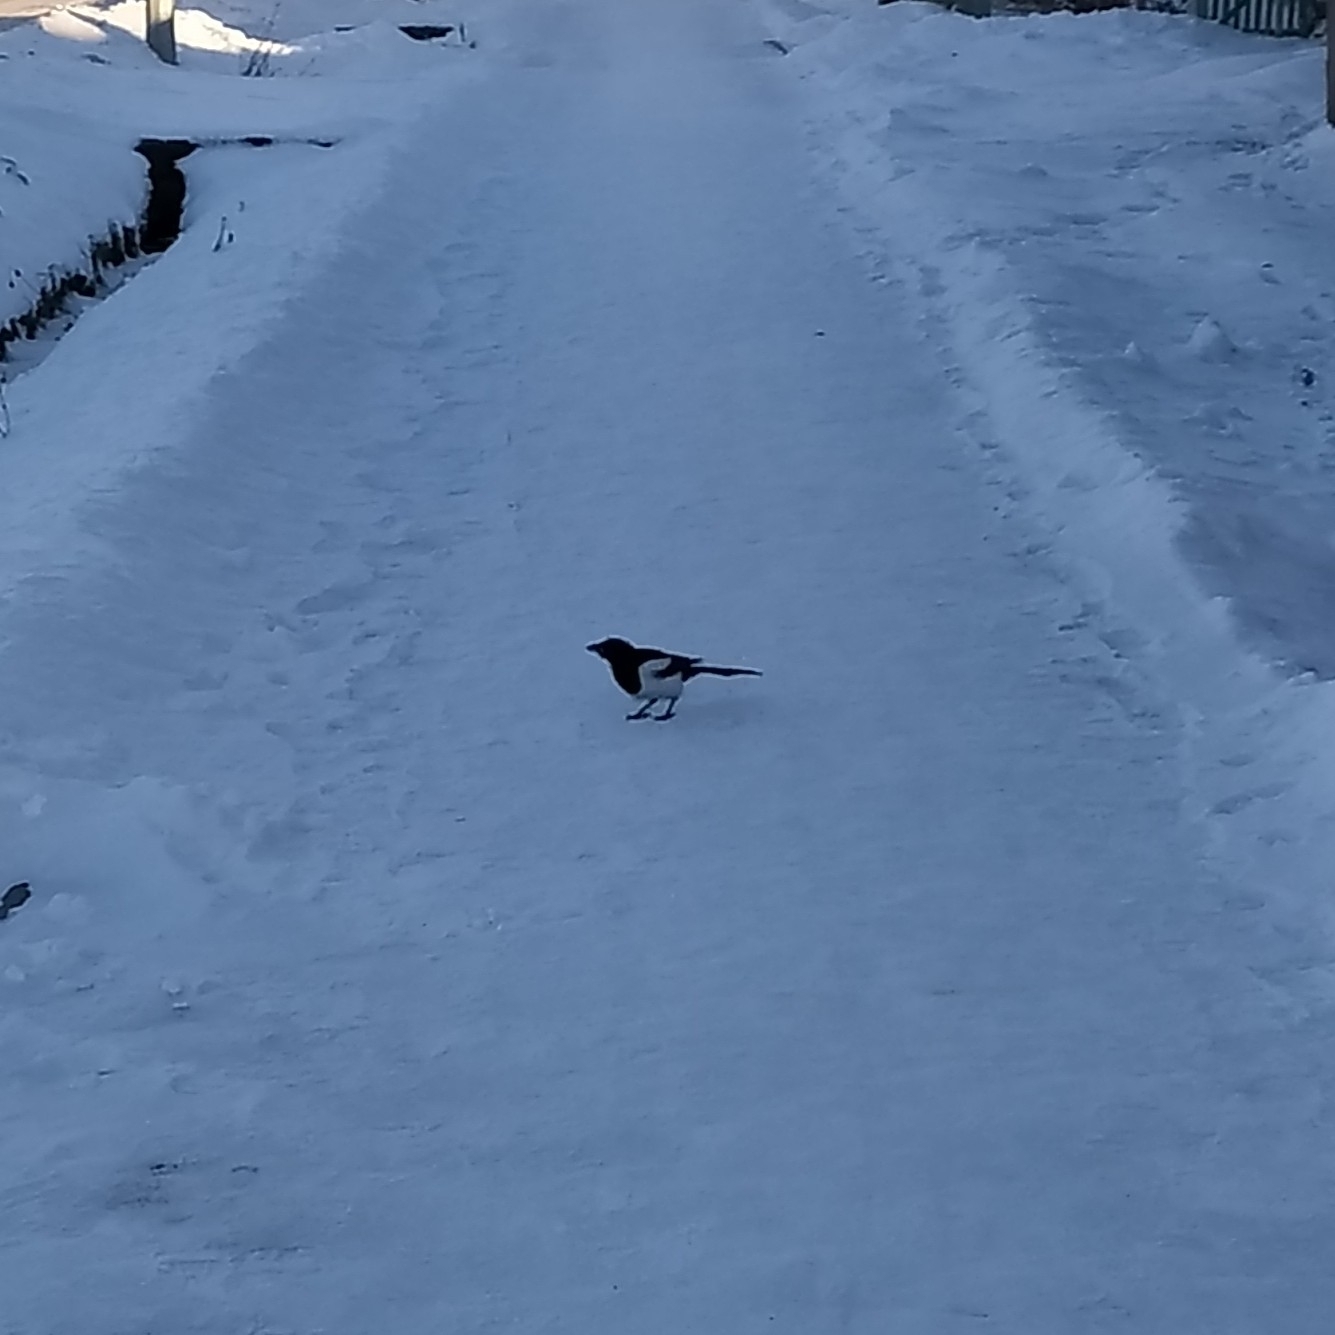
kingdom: Animalia
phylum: Chordata
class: Aves
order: Passeriformes
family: Corvidae
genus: Pica
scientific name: Pica pica
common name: Eurasian magpie
